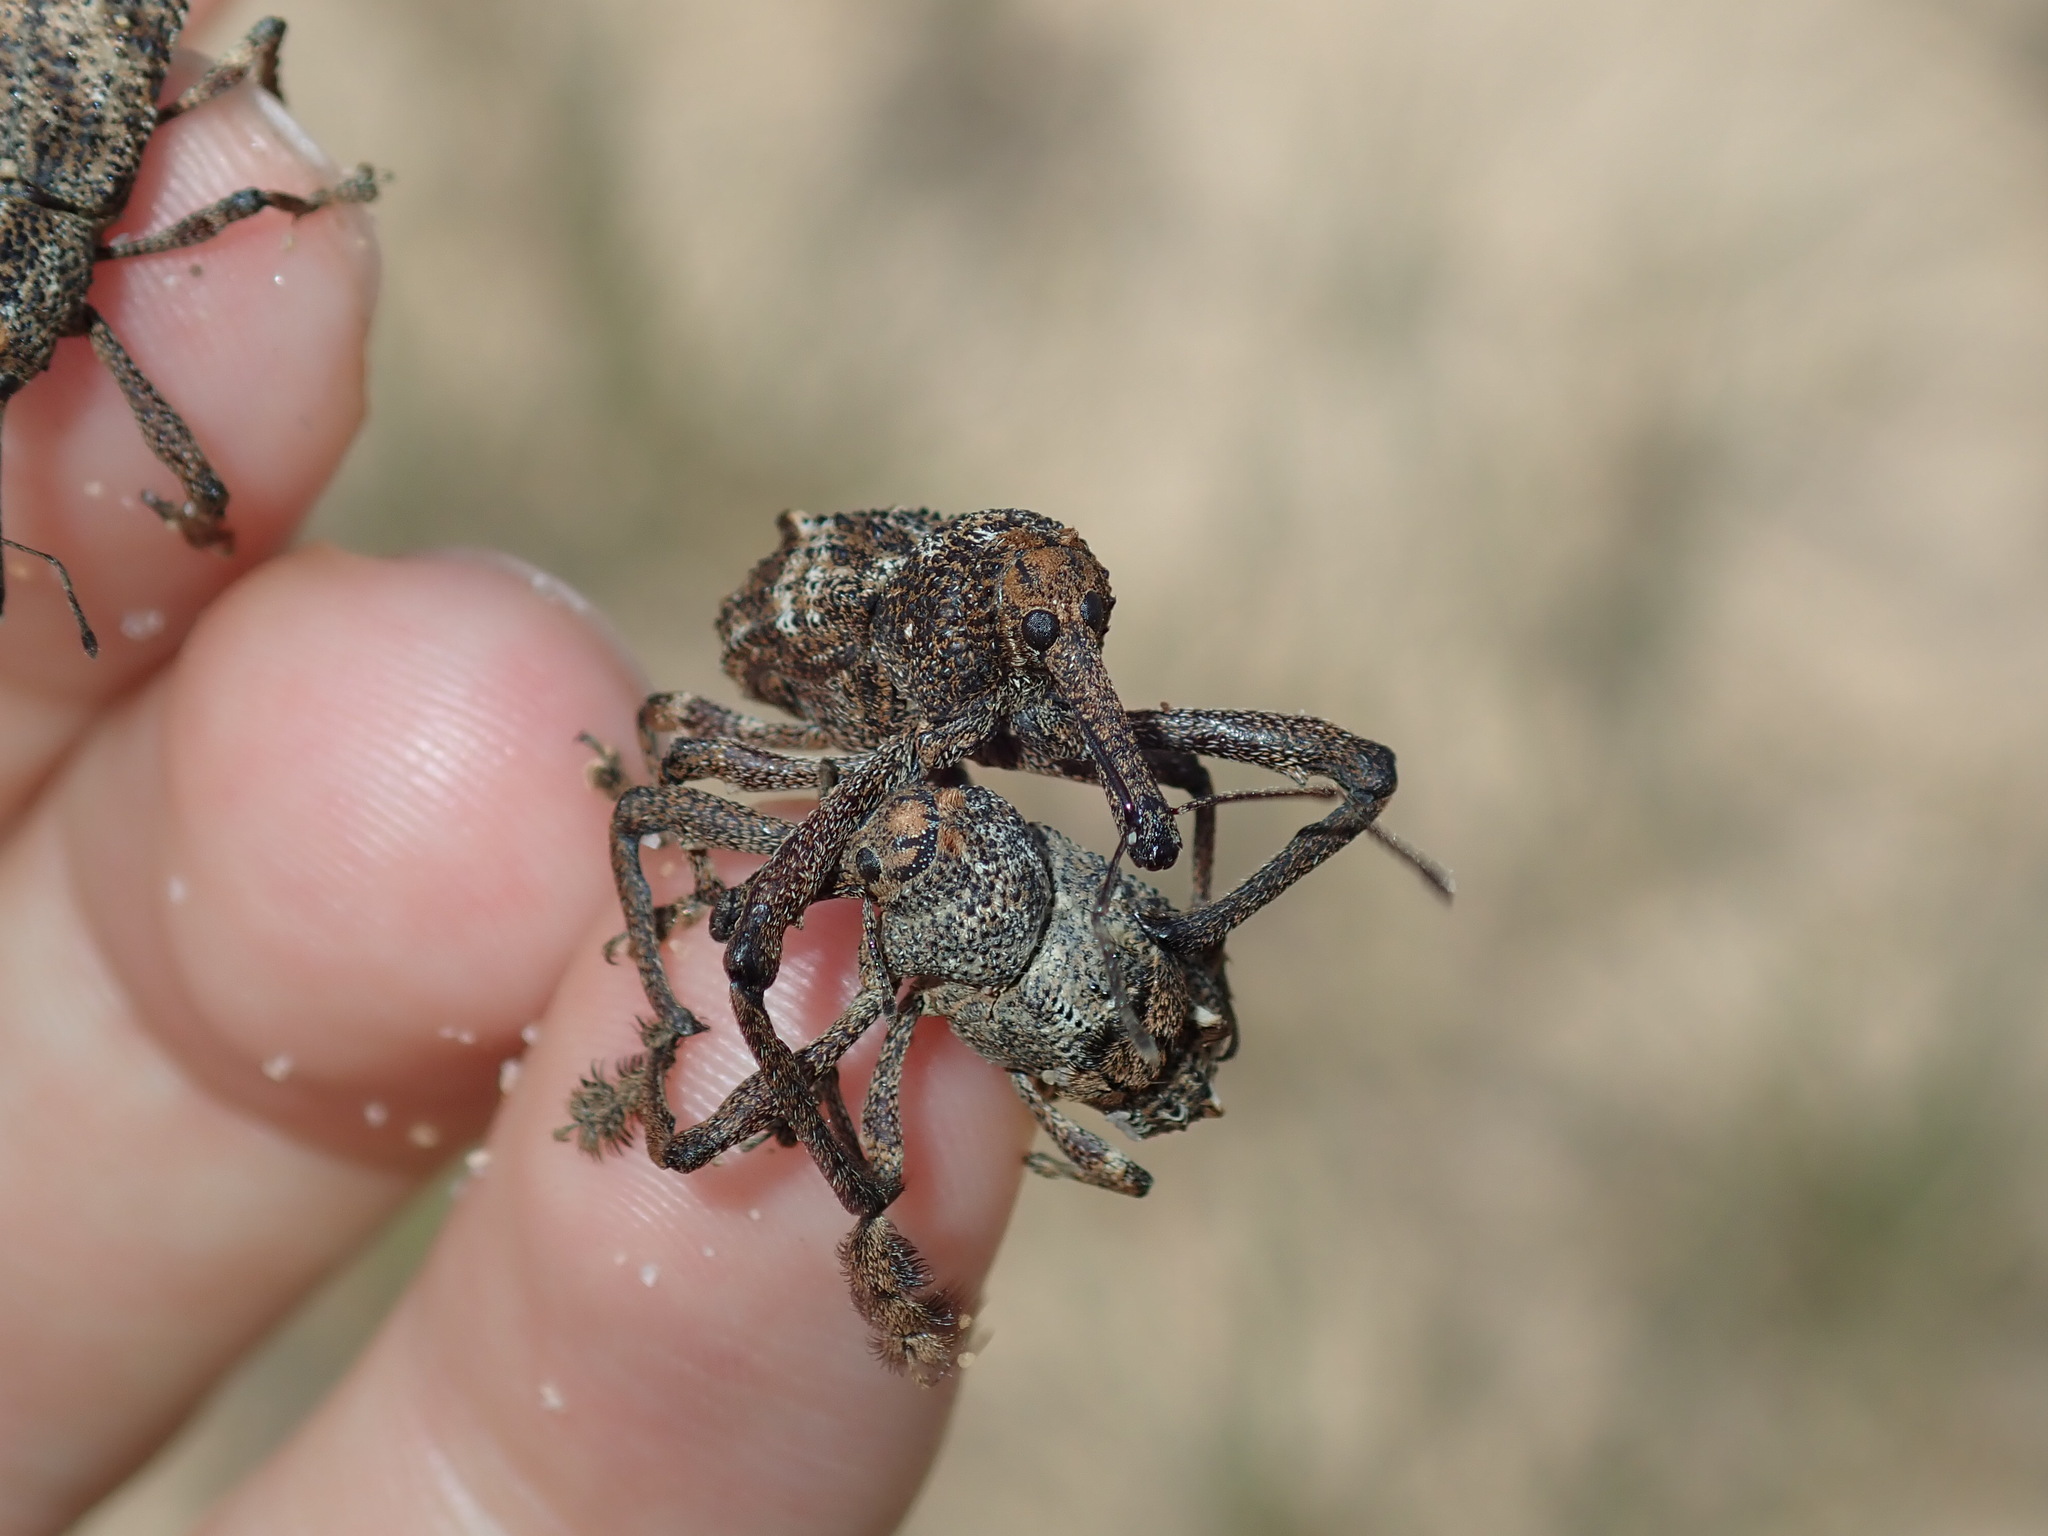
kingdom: Animalia
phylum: Arthropoda
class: Insecta
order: Coleoptera
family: Curculionidae
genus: Orthorhinus
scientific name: Orthorhinus cylindrirostris
